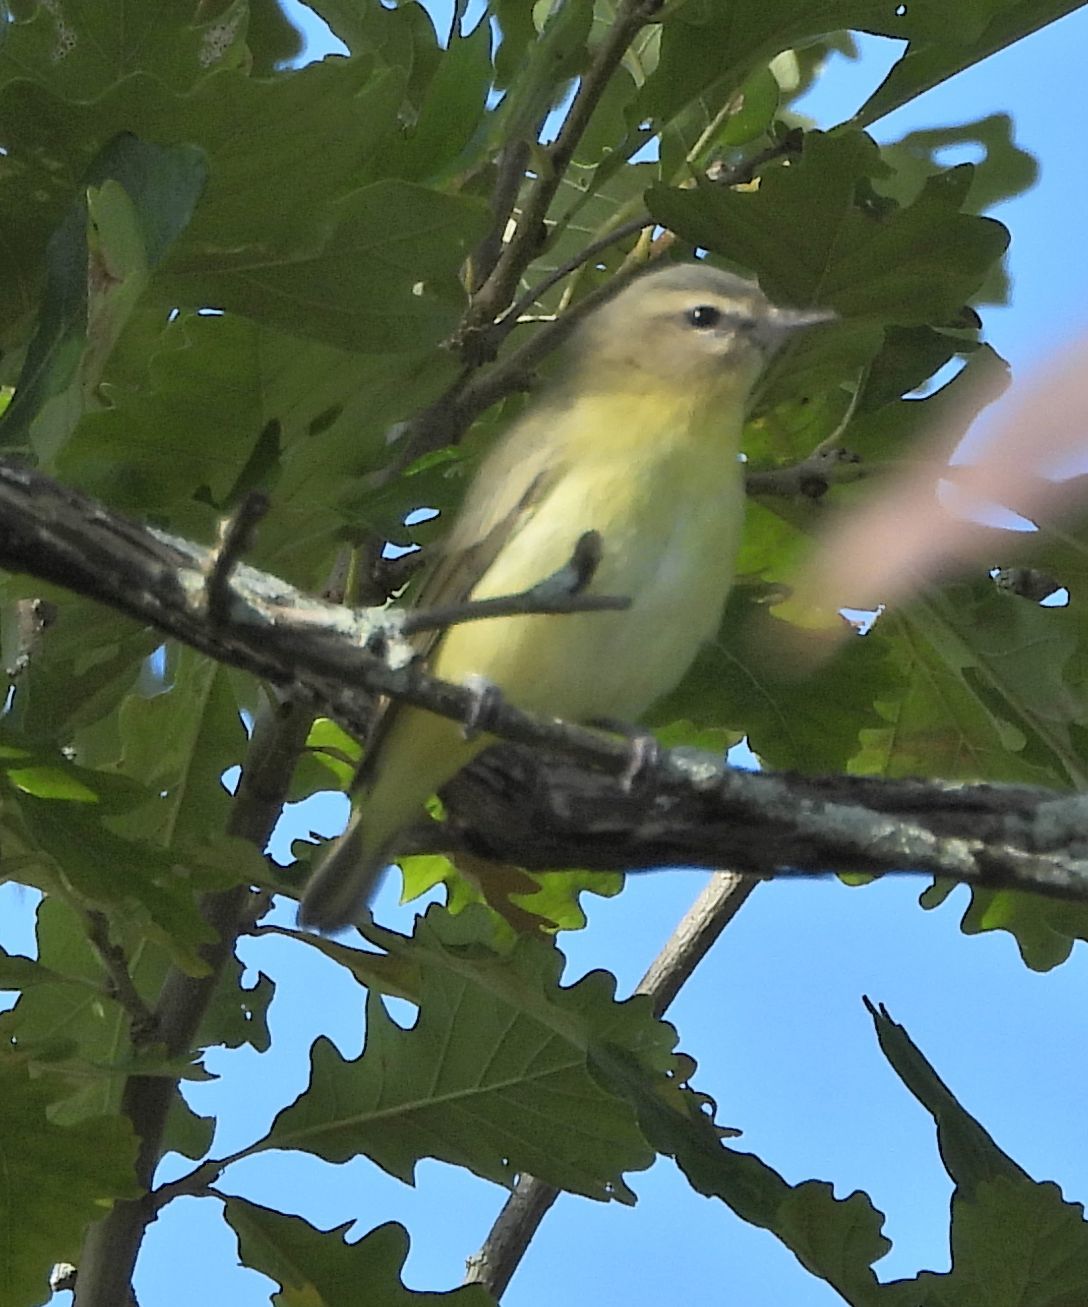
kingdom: Animalia
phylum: Chordata
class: Aves
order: Passeriformes
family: Vireonidae
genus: Vireo
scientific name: Vireo philadelphicus
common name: Philadelphia vireo
